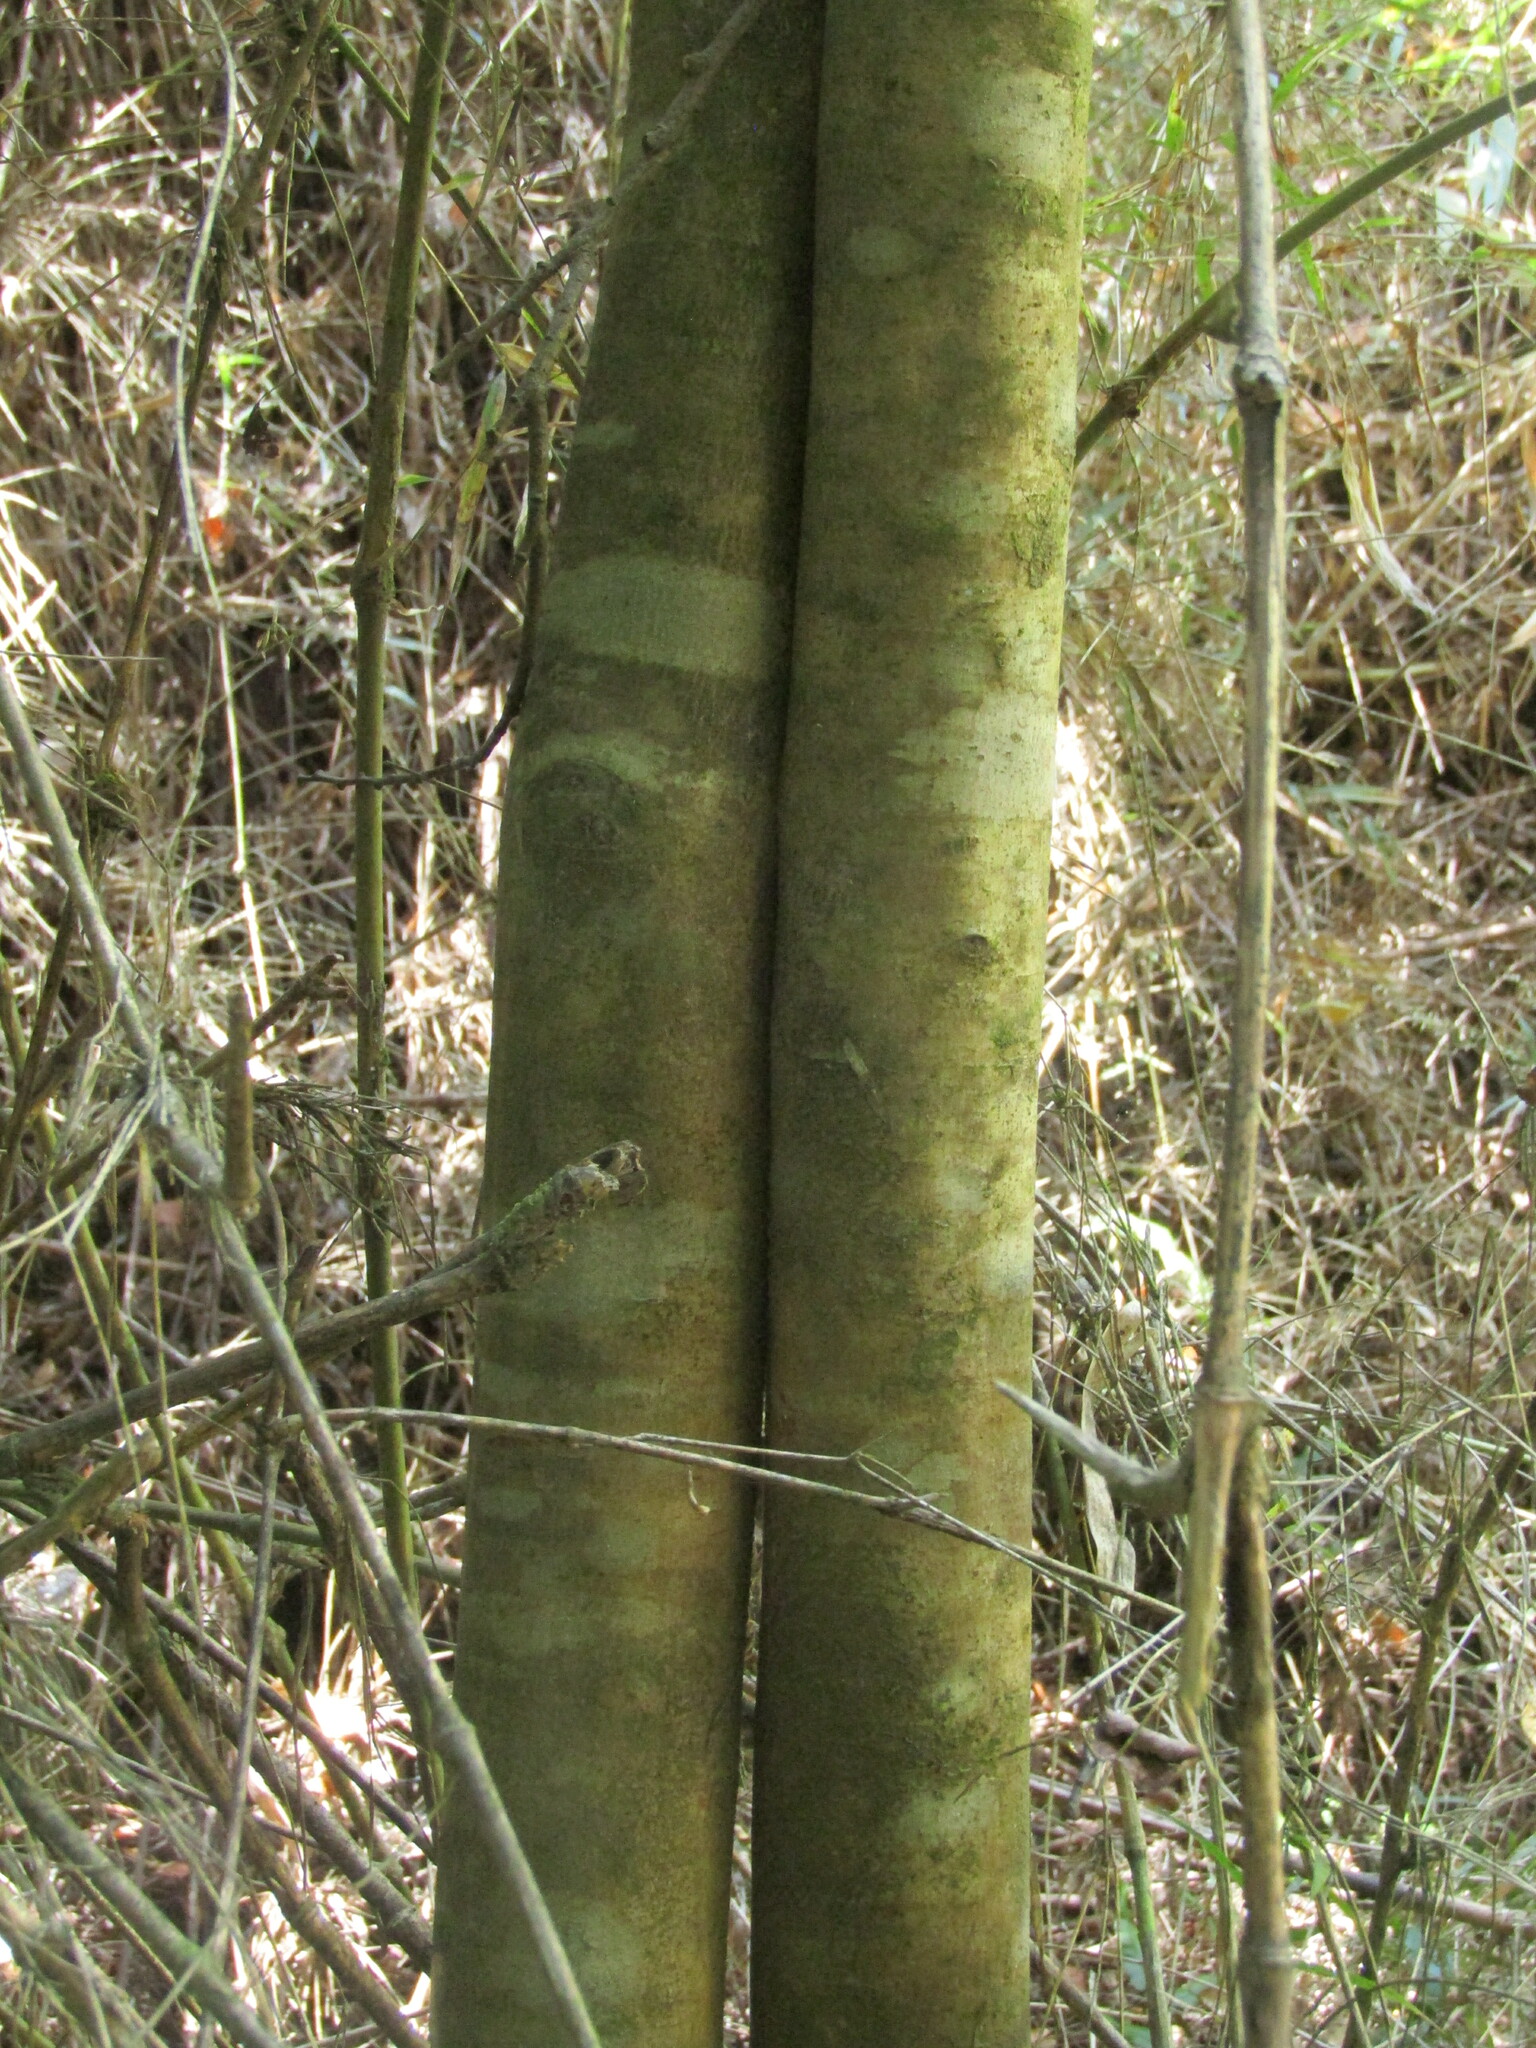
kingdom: Plantae
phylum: Tracheophyta
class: Magnoliopsida
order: Oxalidales
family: Cunoniaceae
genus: Caldcluvia
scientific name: Caldcluvia paniculata
